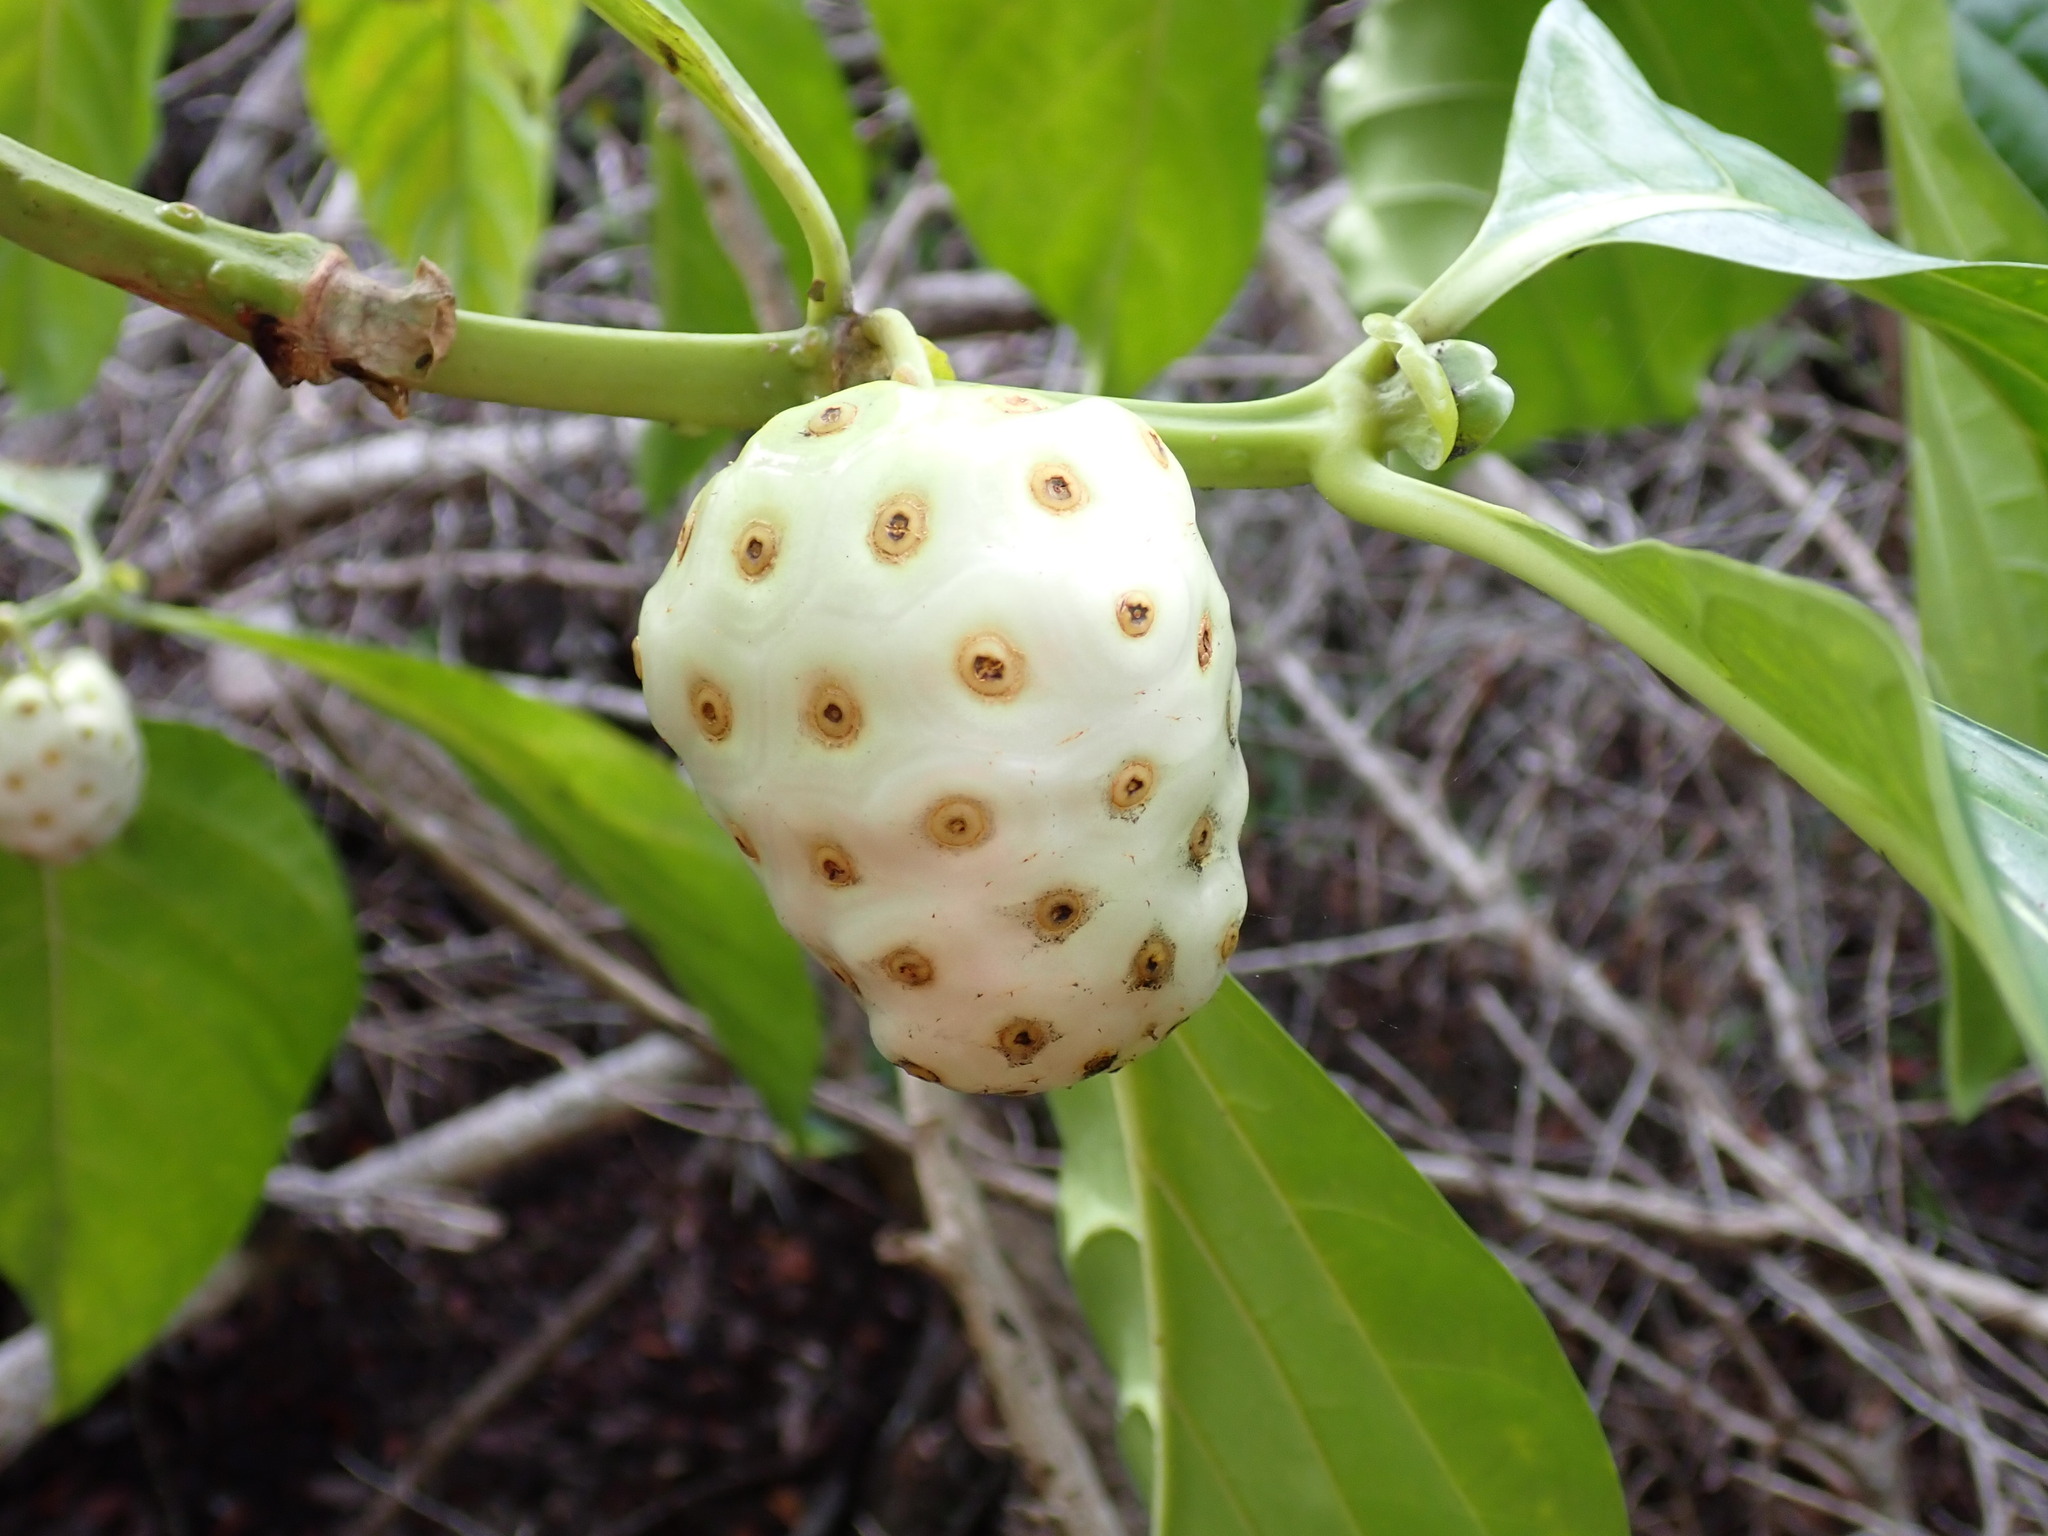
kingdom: Plantae
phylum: Tracheophyta
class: Magnoliopsida
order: Gentianales
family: Rubiaceae
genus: Morinda
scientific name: Morinda citrifolia
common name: Indian-mulberry
